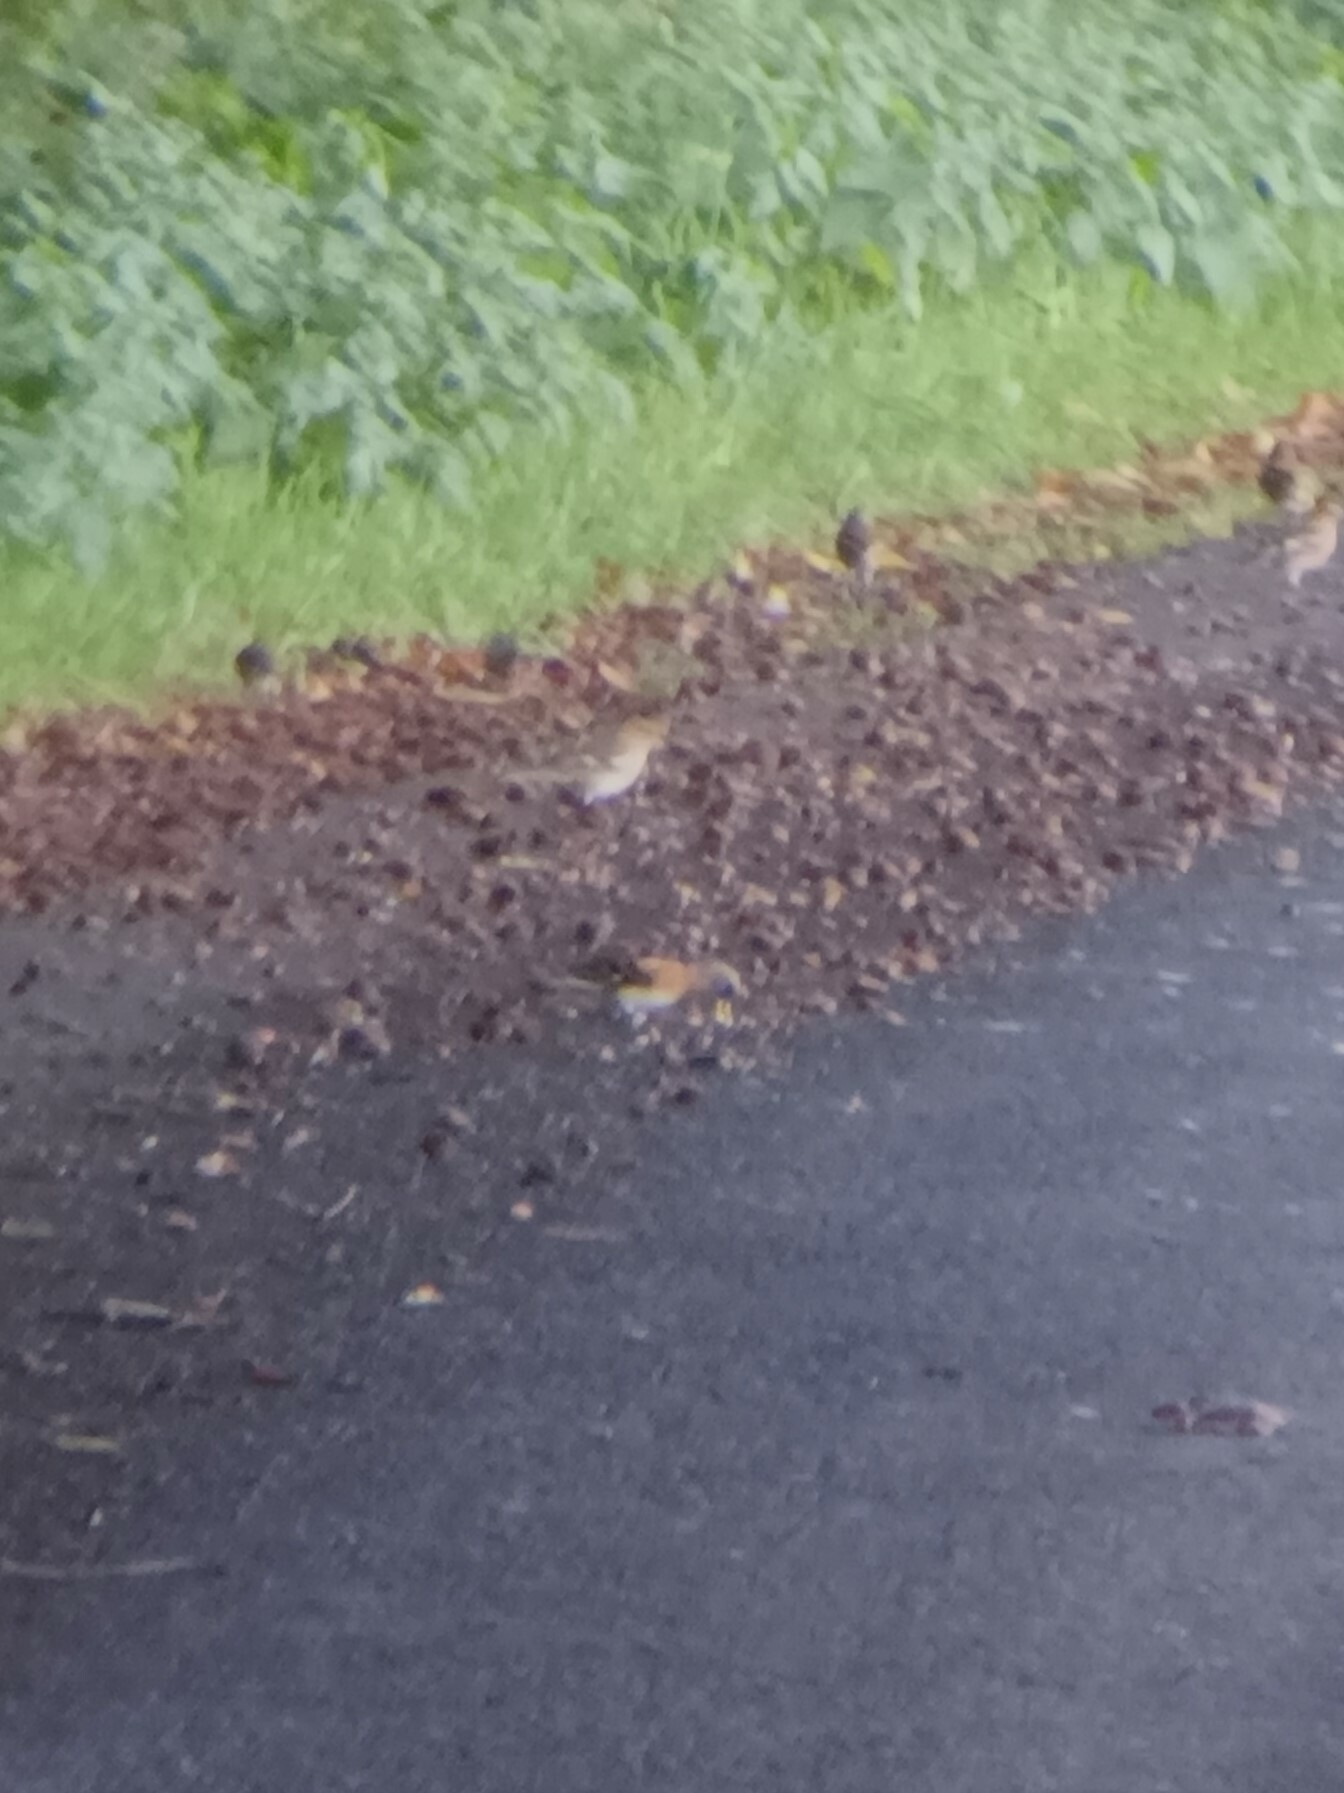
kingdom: Animalia
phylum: Chordata
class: Aves
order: Passeriformes
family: Fringillidae
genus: Fringilla
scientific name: Fringilla montifringilla
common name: Brambling
